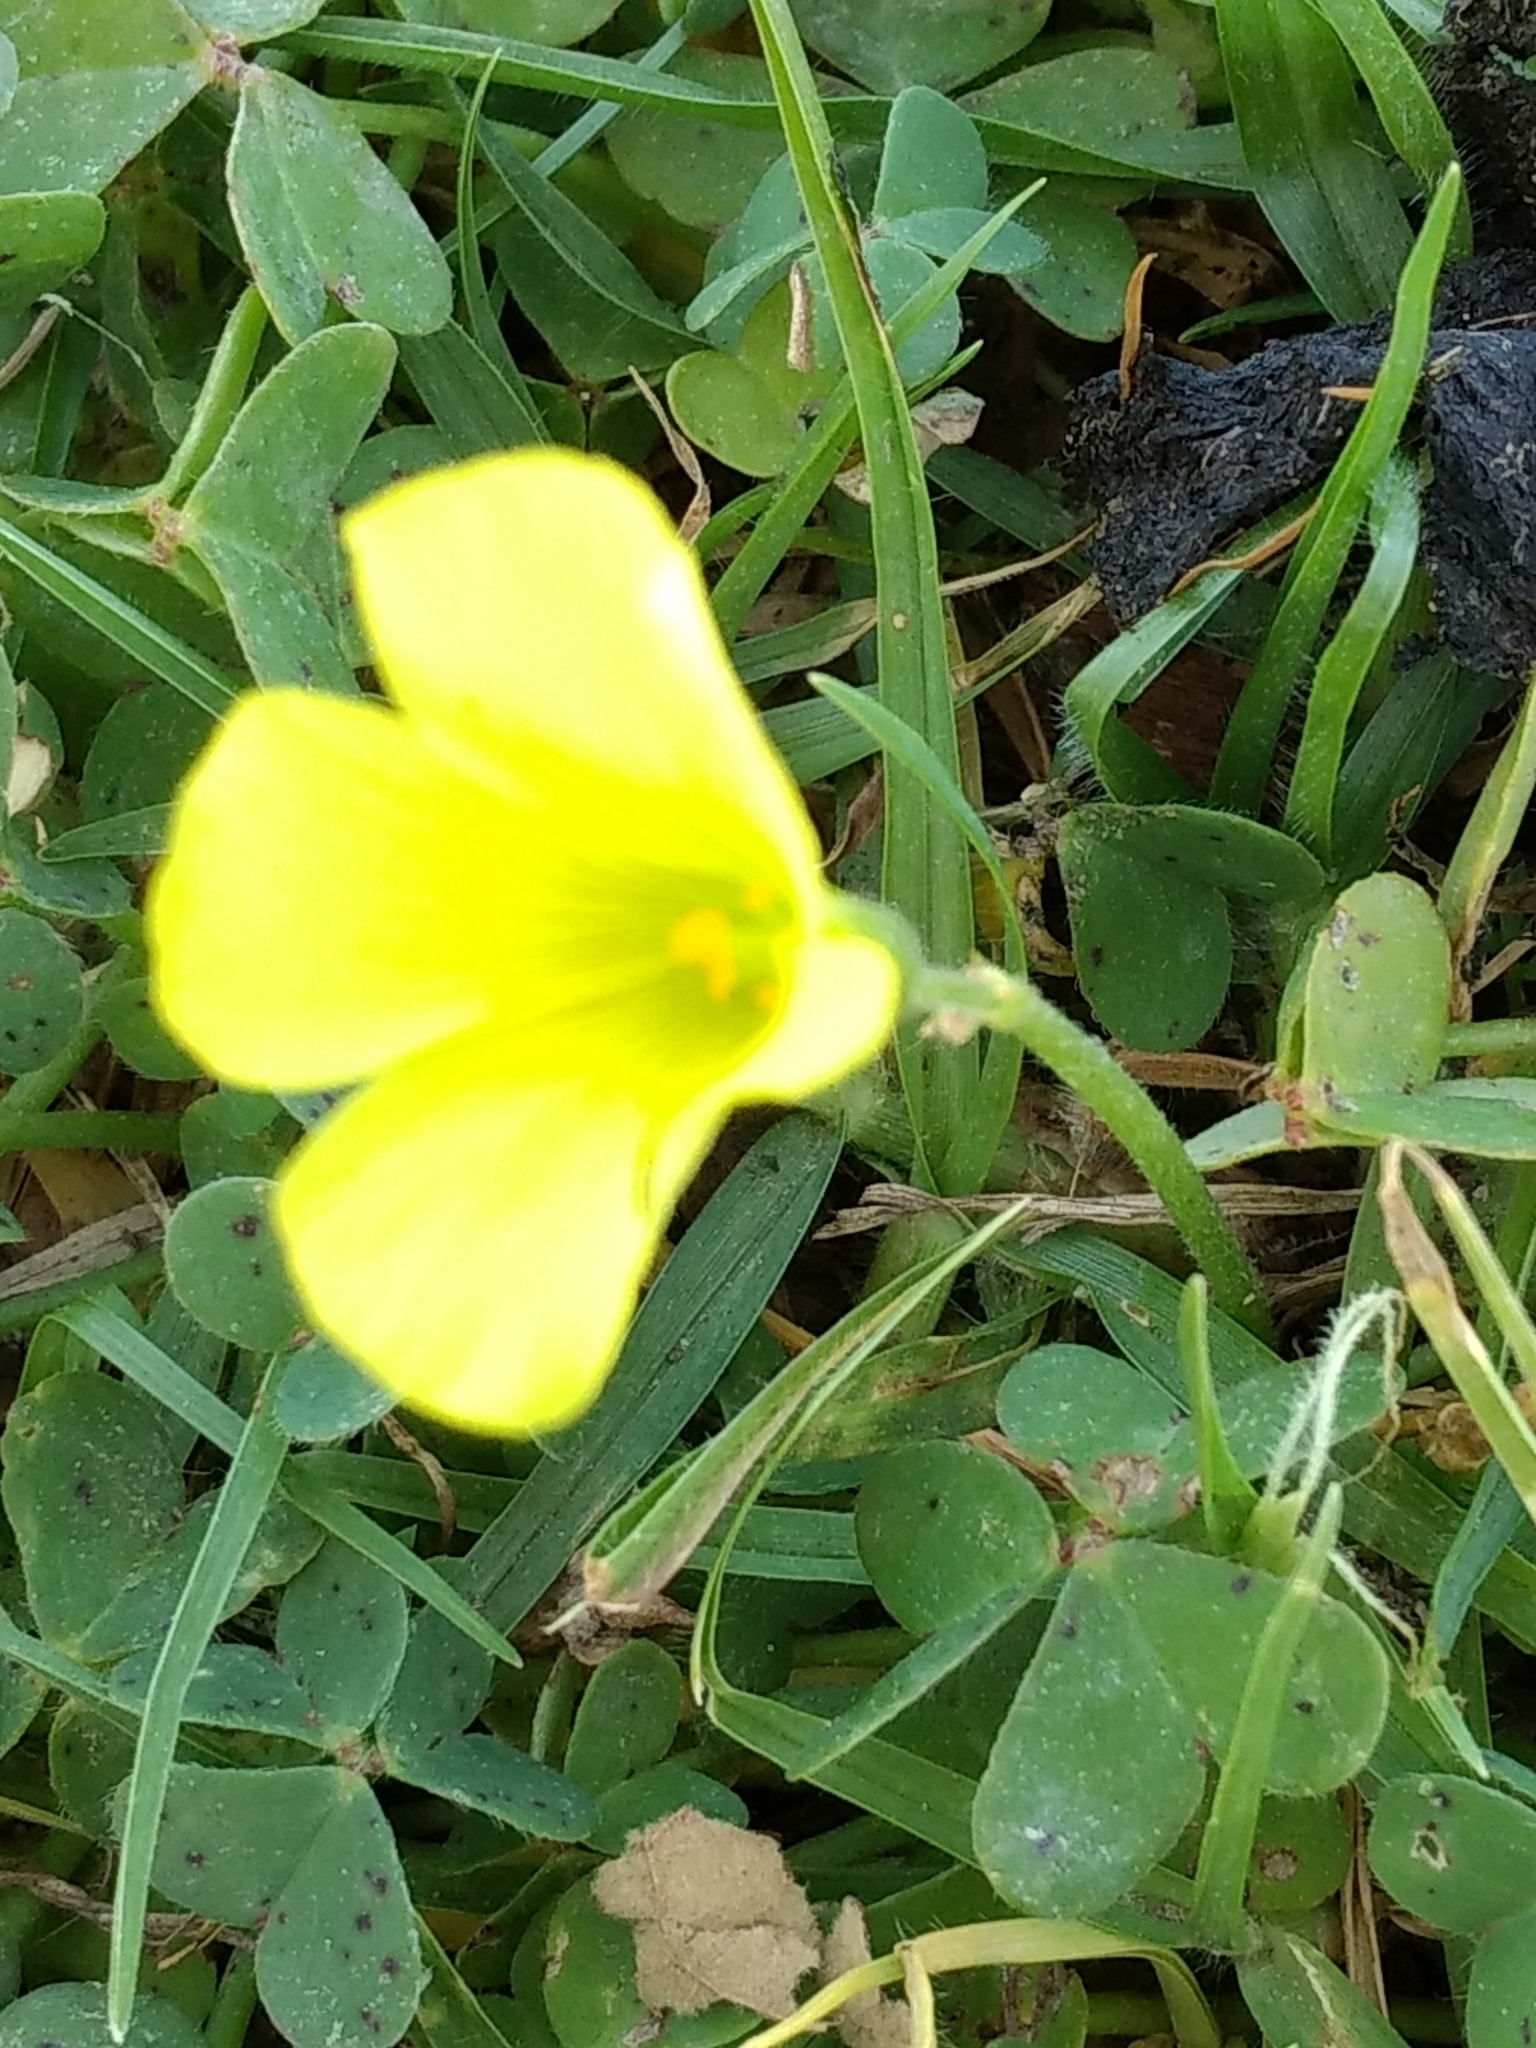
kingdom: Plantae
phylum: Tracheophyta
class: Magnoliopsida
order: Oxalidales
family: Oxalidaceae
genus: Oxalis
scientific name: Oxalis pes-caprae
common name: Bermuda-buttercup
